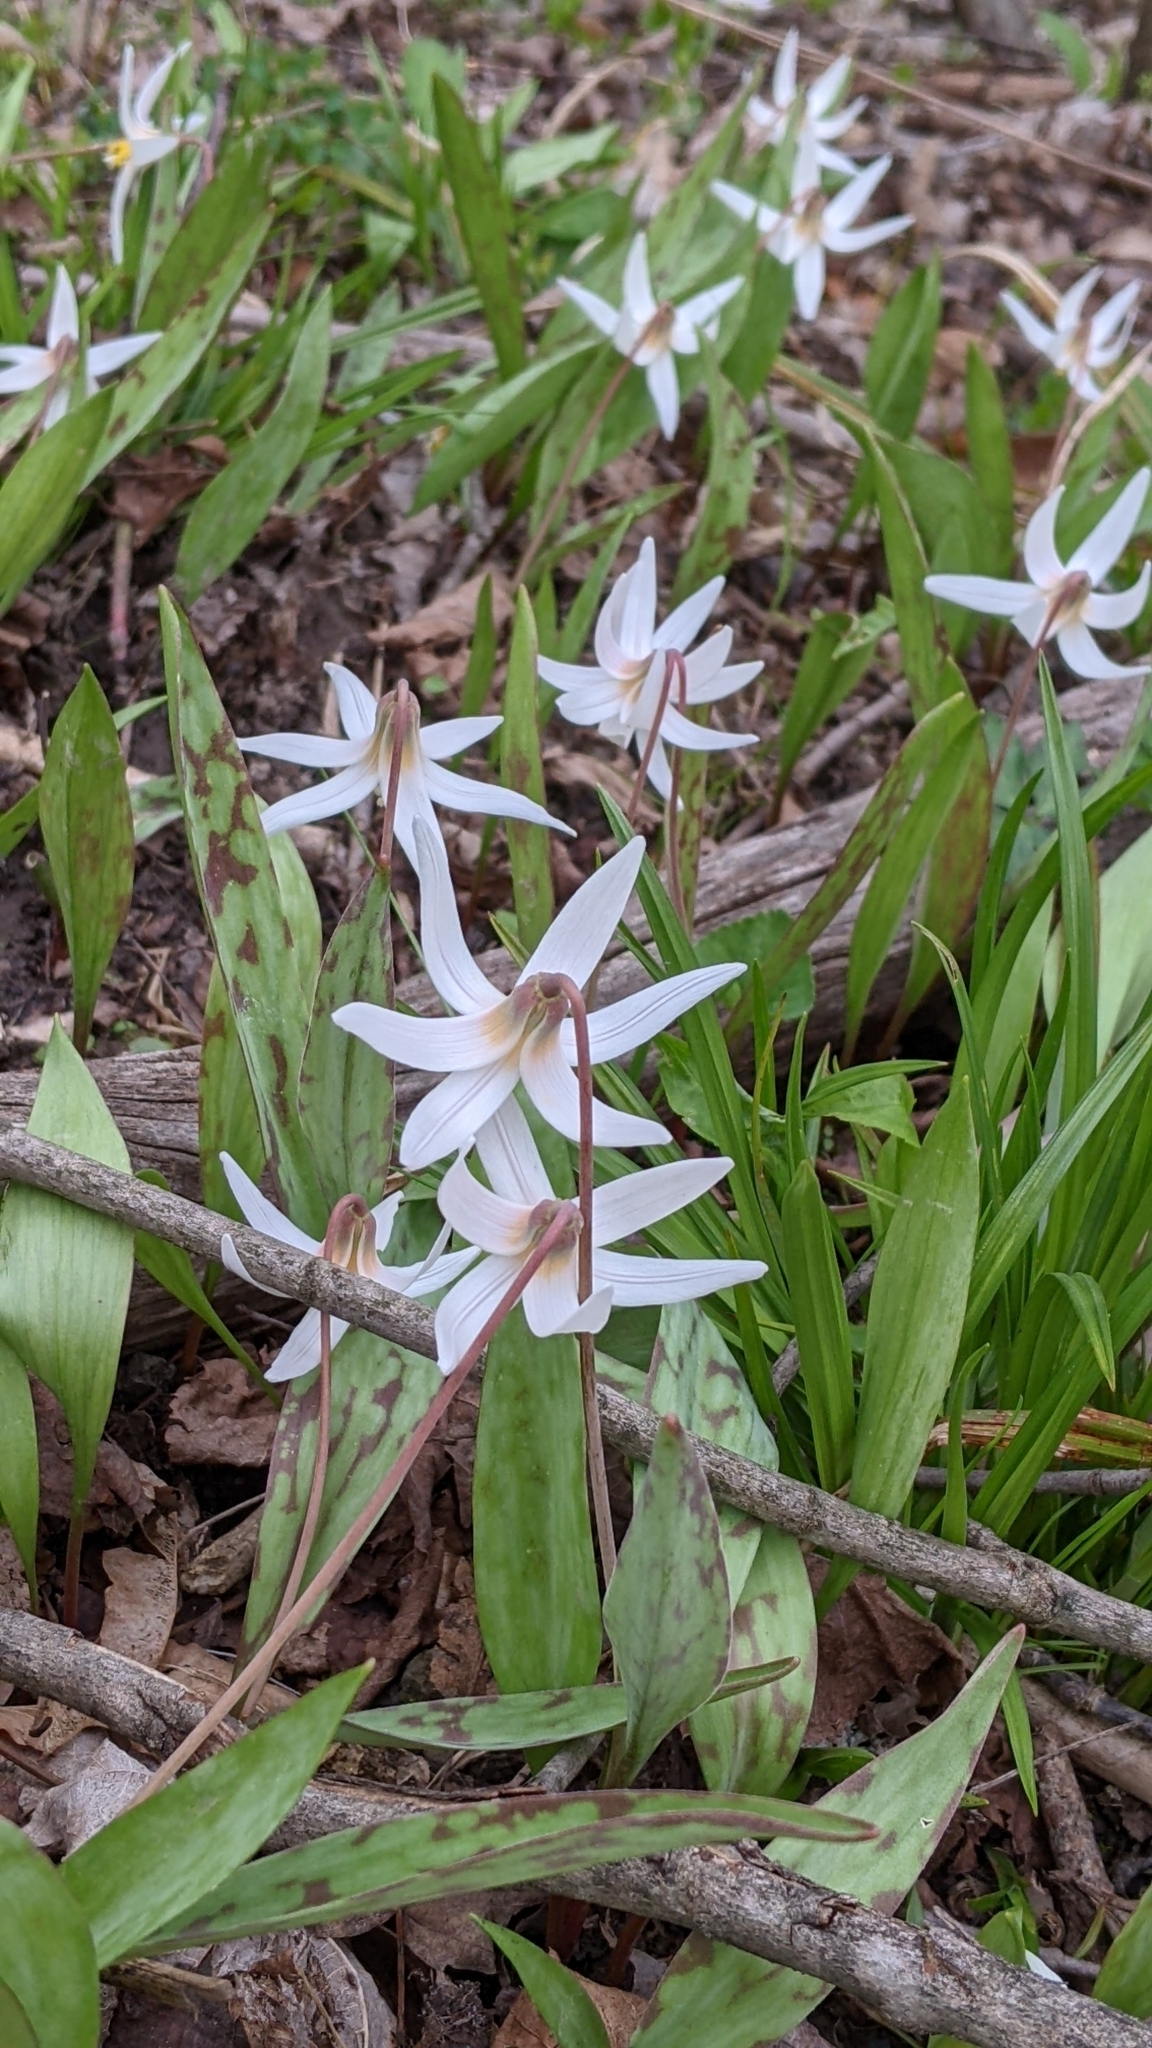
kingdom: Plantae
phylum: Tracheophyta
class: Liliopsida
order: Liliales
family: Liliaceae
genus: Erythronium
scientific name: Erythronium albidum
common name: White trout-lily
